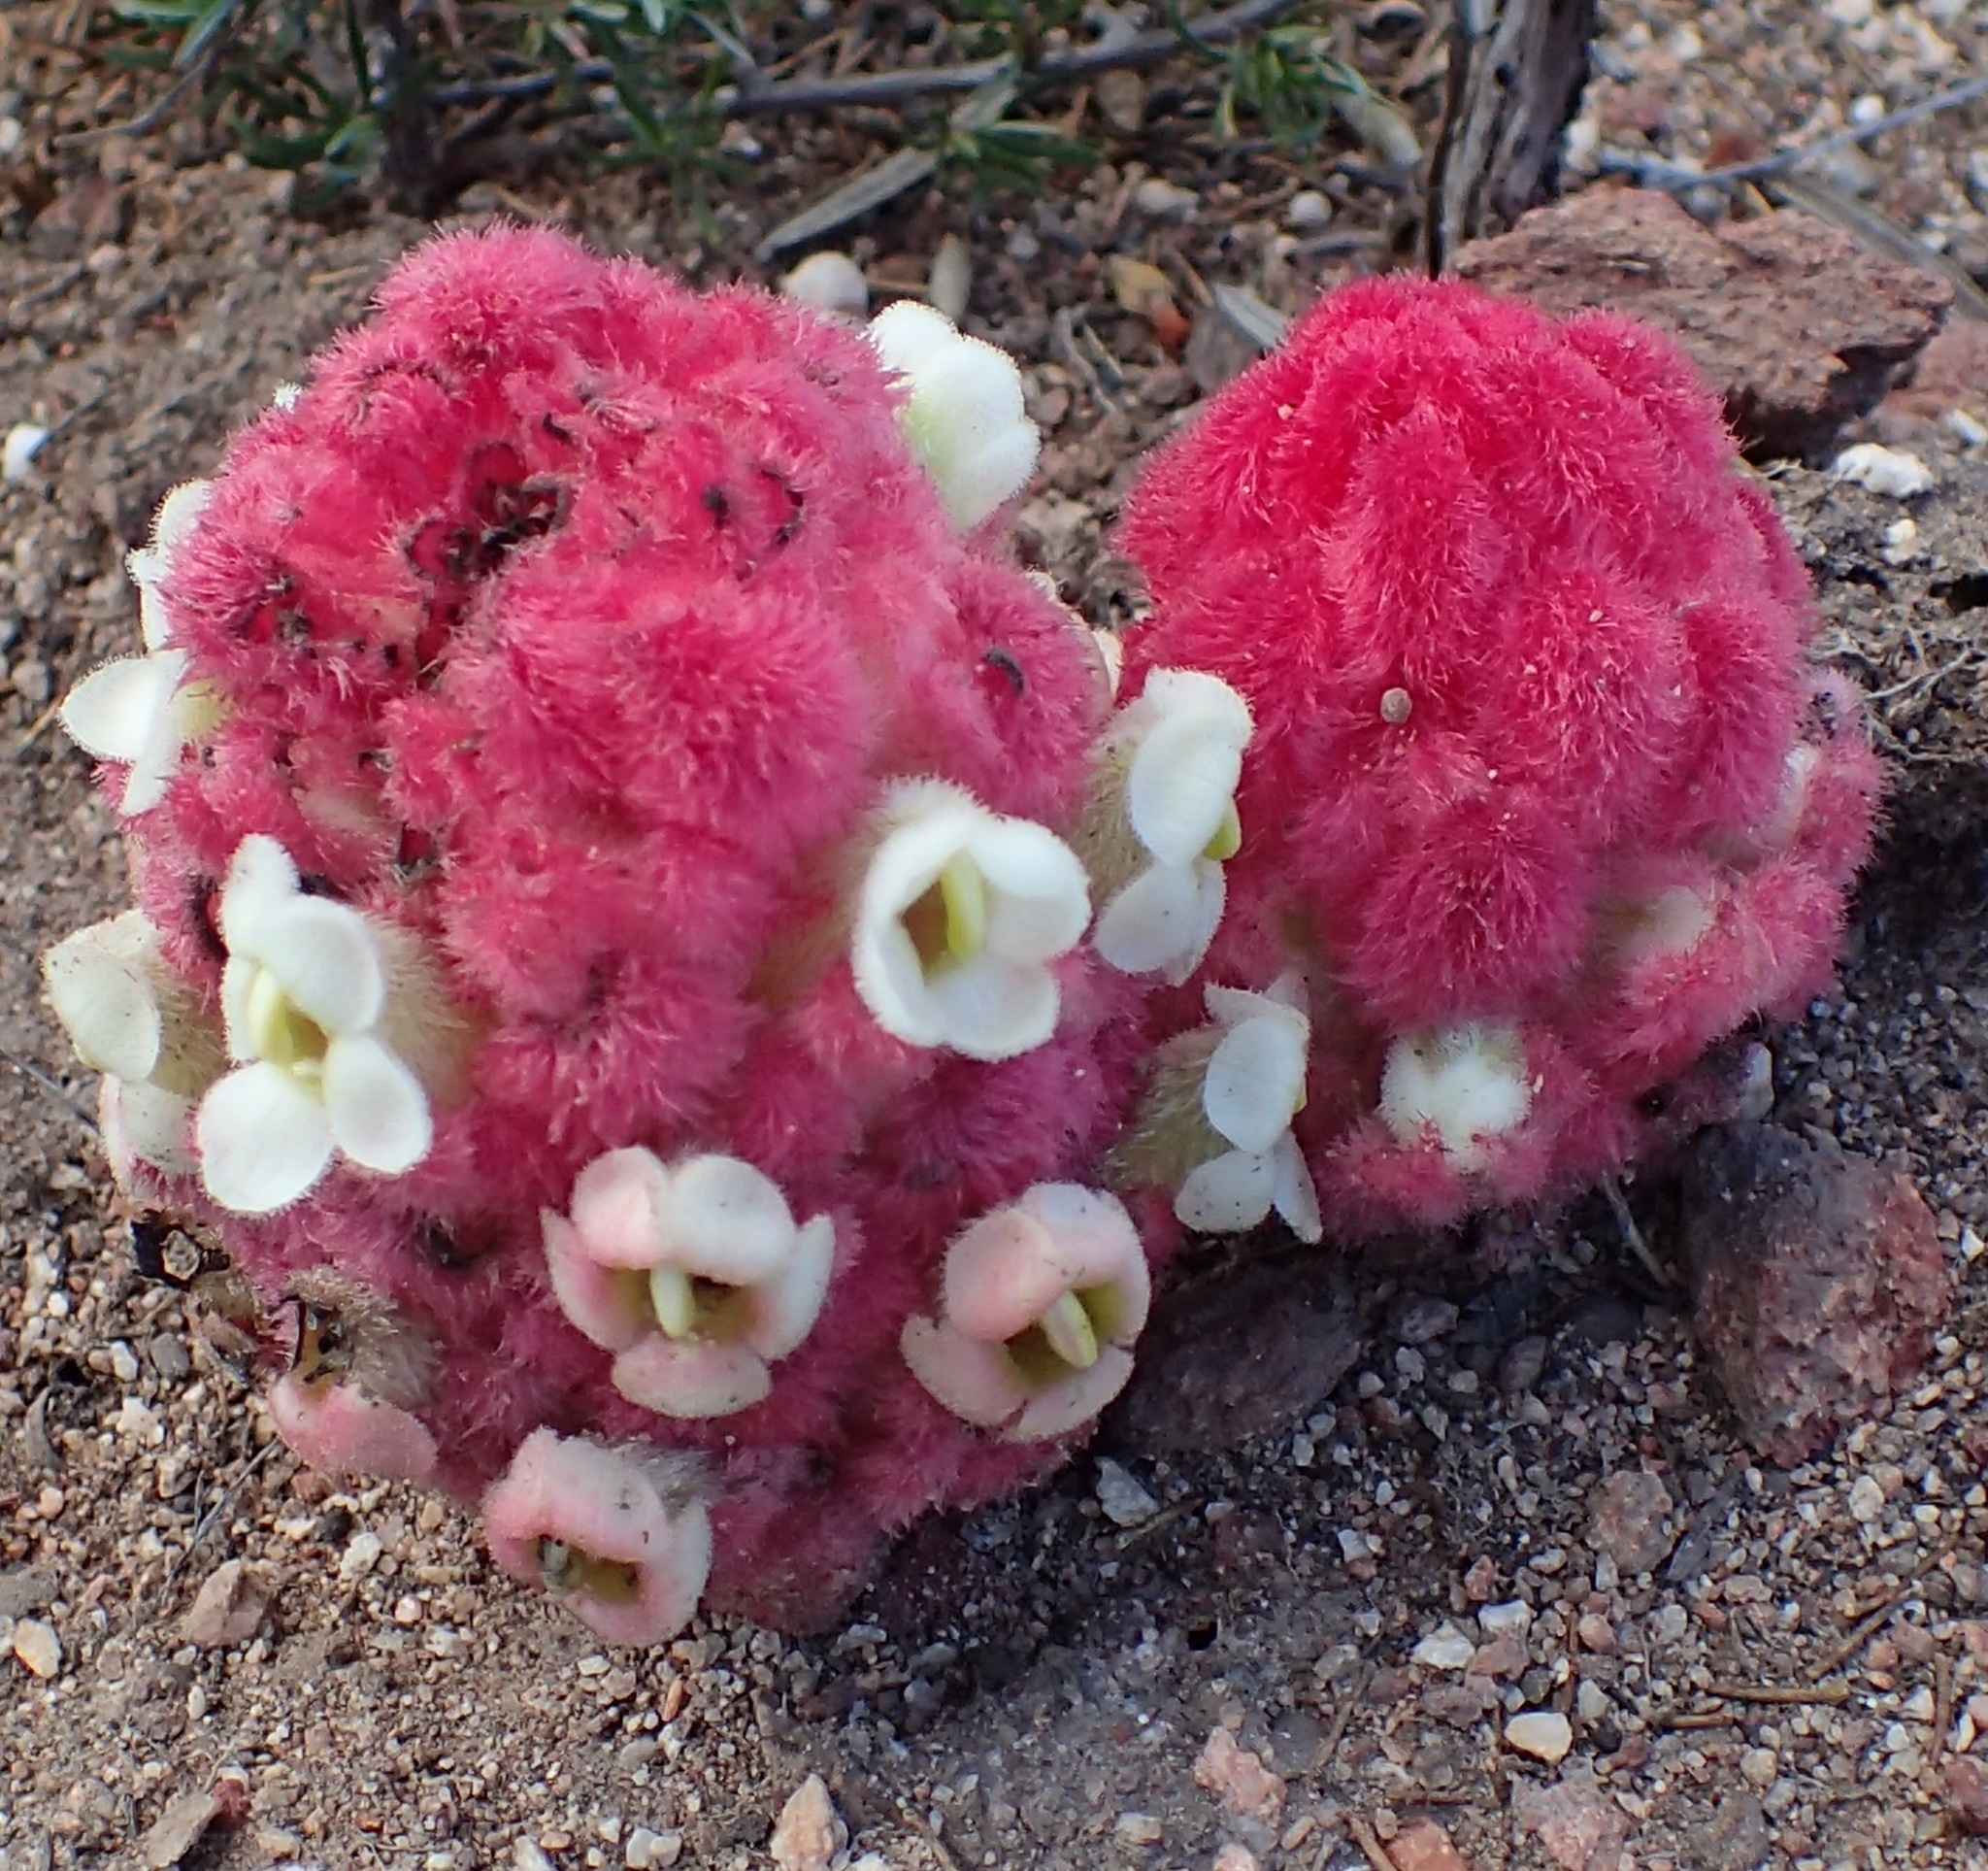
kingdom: Plantae
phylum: Tracheophyta
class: Magnoliopsida
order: Lamiales
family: Orobanchaceae
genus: Harveya
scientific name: Harveya roseoalba
